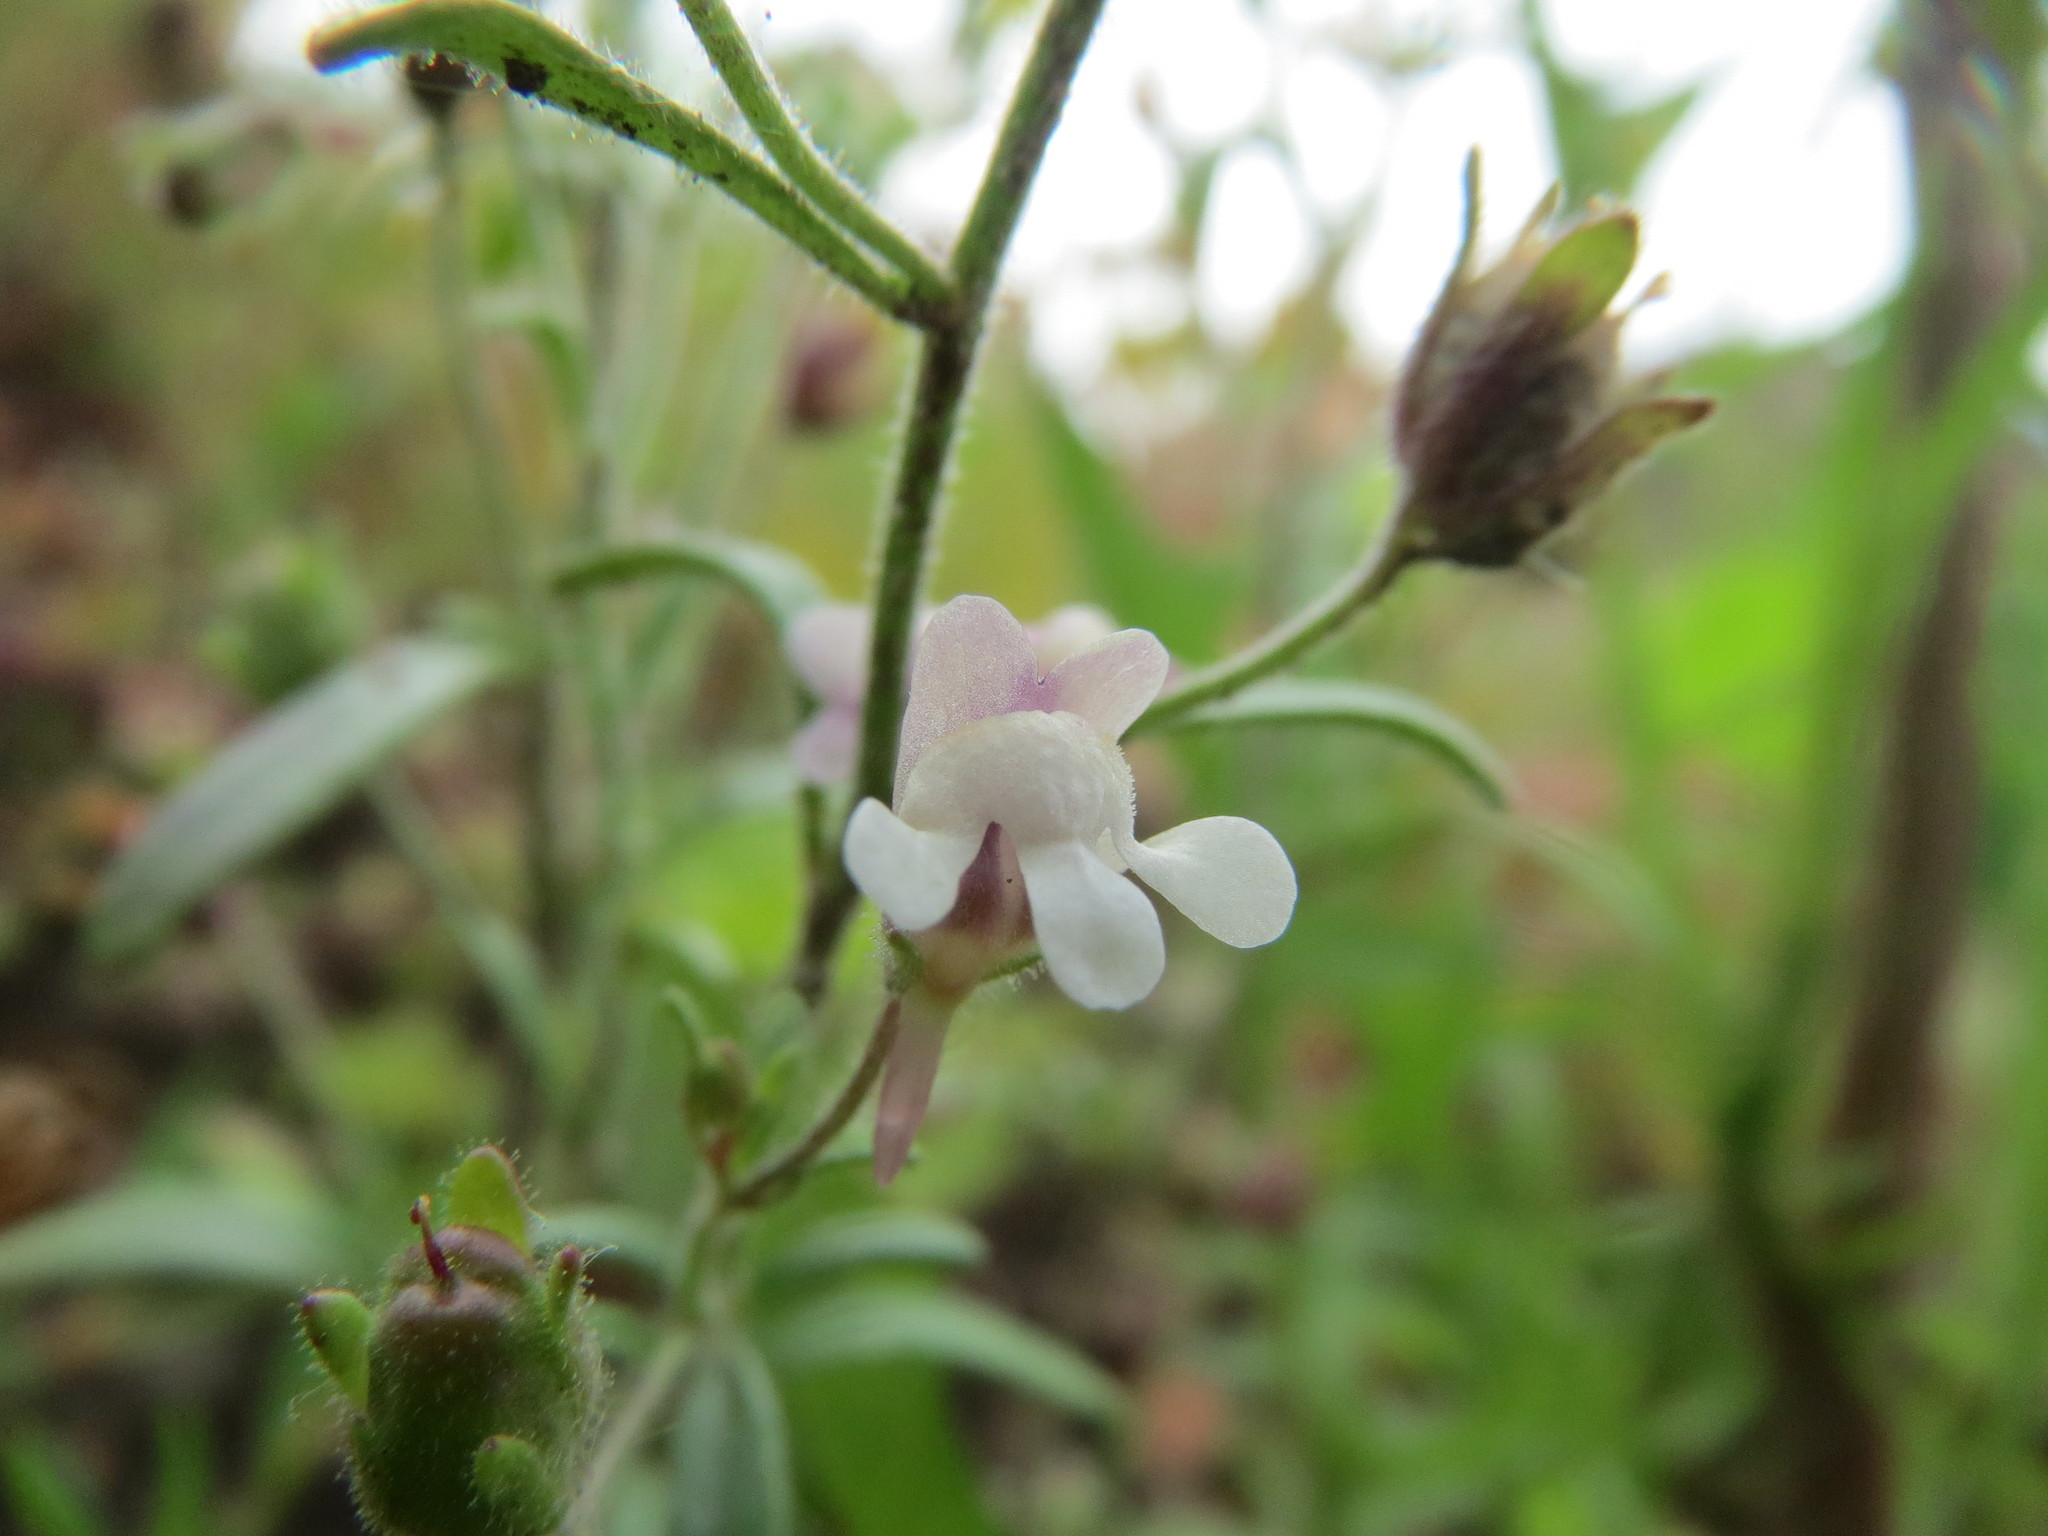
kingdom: Plantae
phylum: Tracheophyta
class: Magnoliopsida
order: Lamiales
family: Plantaginaceae
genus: Chaenorhinum
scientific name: Chaenorhinum minus
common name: Dwarf snapdragon
